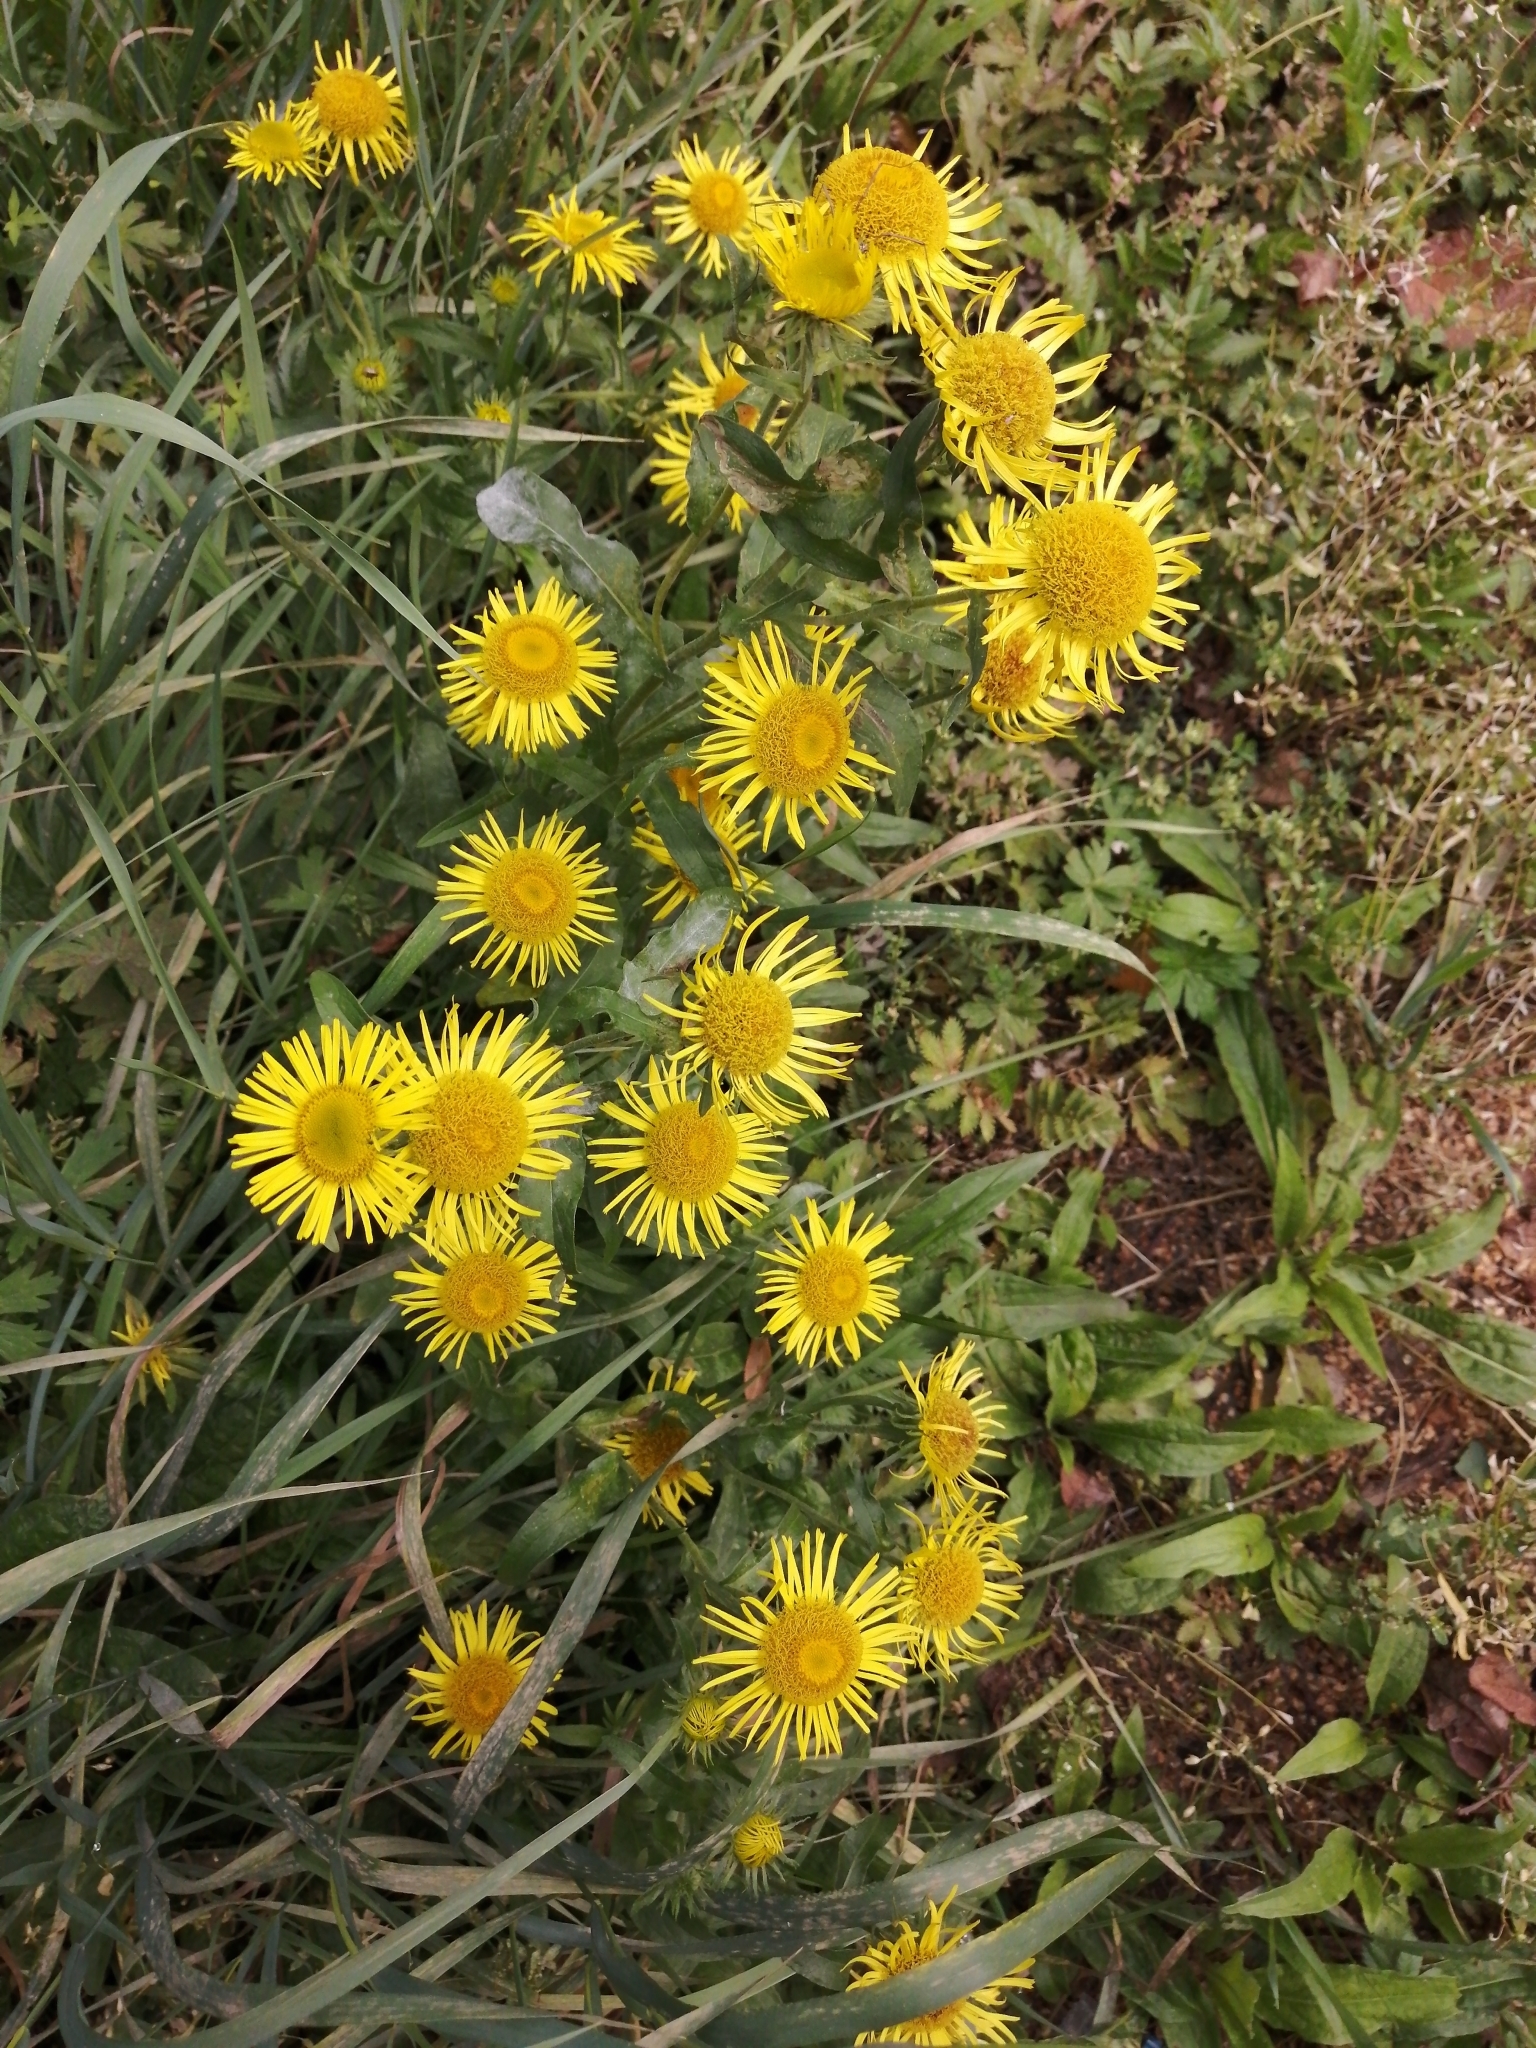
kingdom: Plantae
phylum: Tracheophyta
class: Magnoliopsida
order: Asterales
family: Asteraceae
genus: Pentanema
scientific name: Pentanema britannicum
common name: British elecampane
